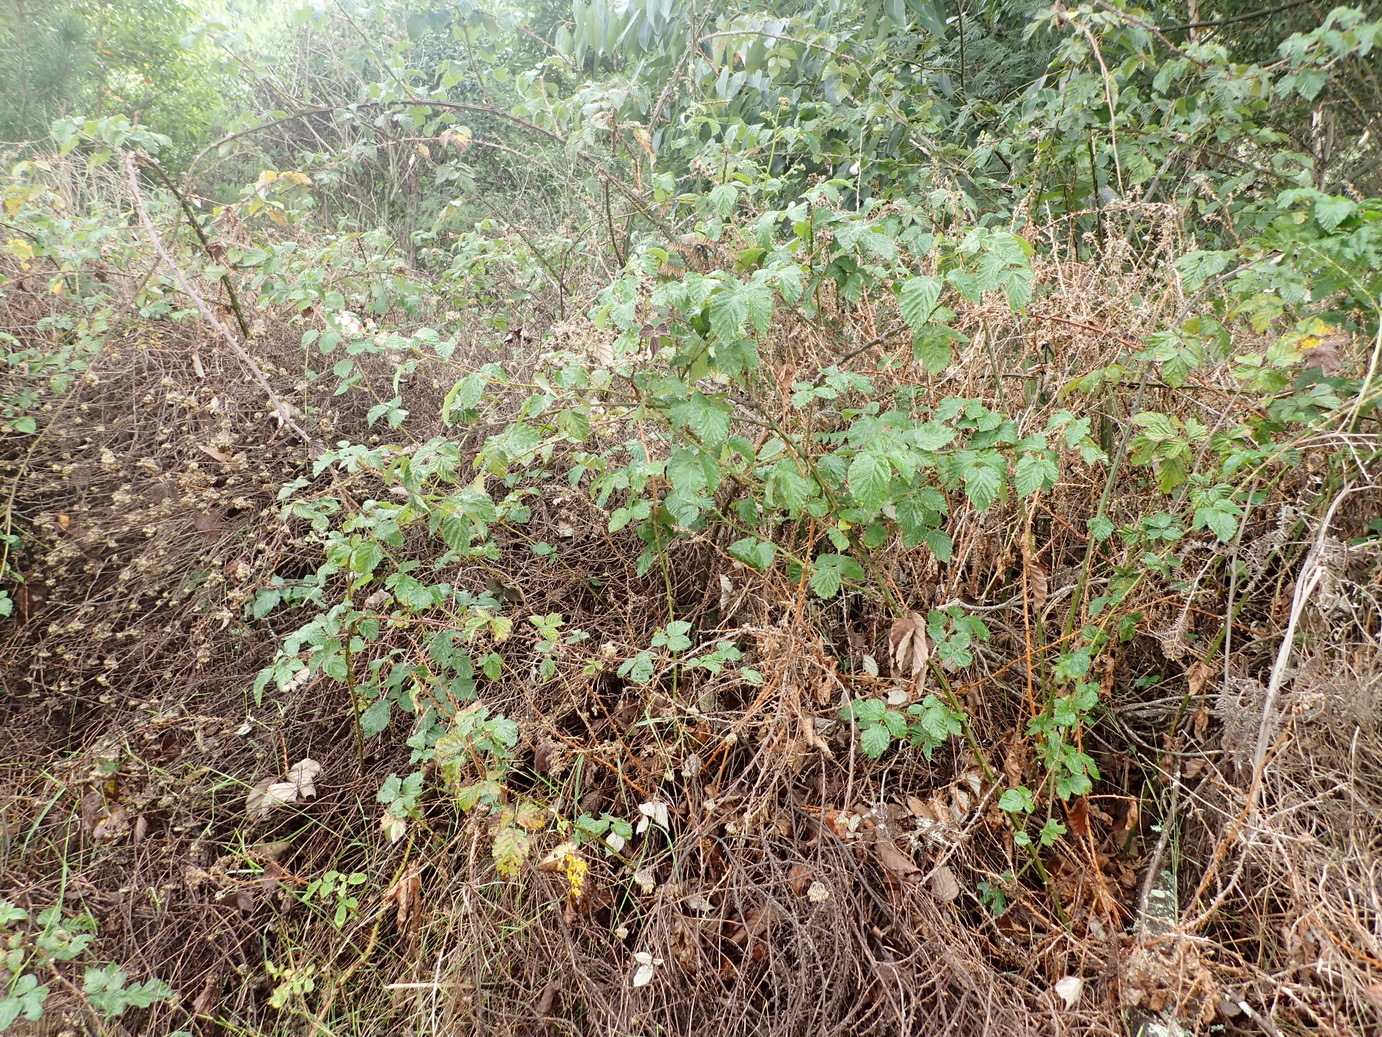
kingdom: Plantae
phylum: Tracheophyta
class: Magnoliopsida
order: Rosales
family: Rosaceae
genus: Rubus
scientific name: Rubus rigidus
